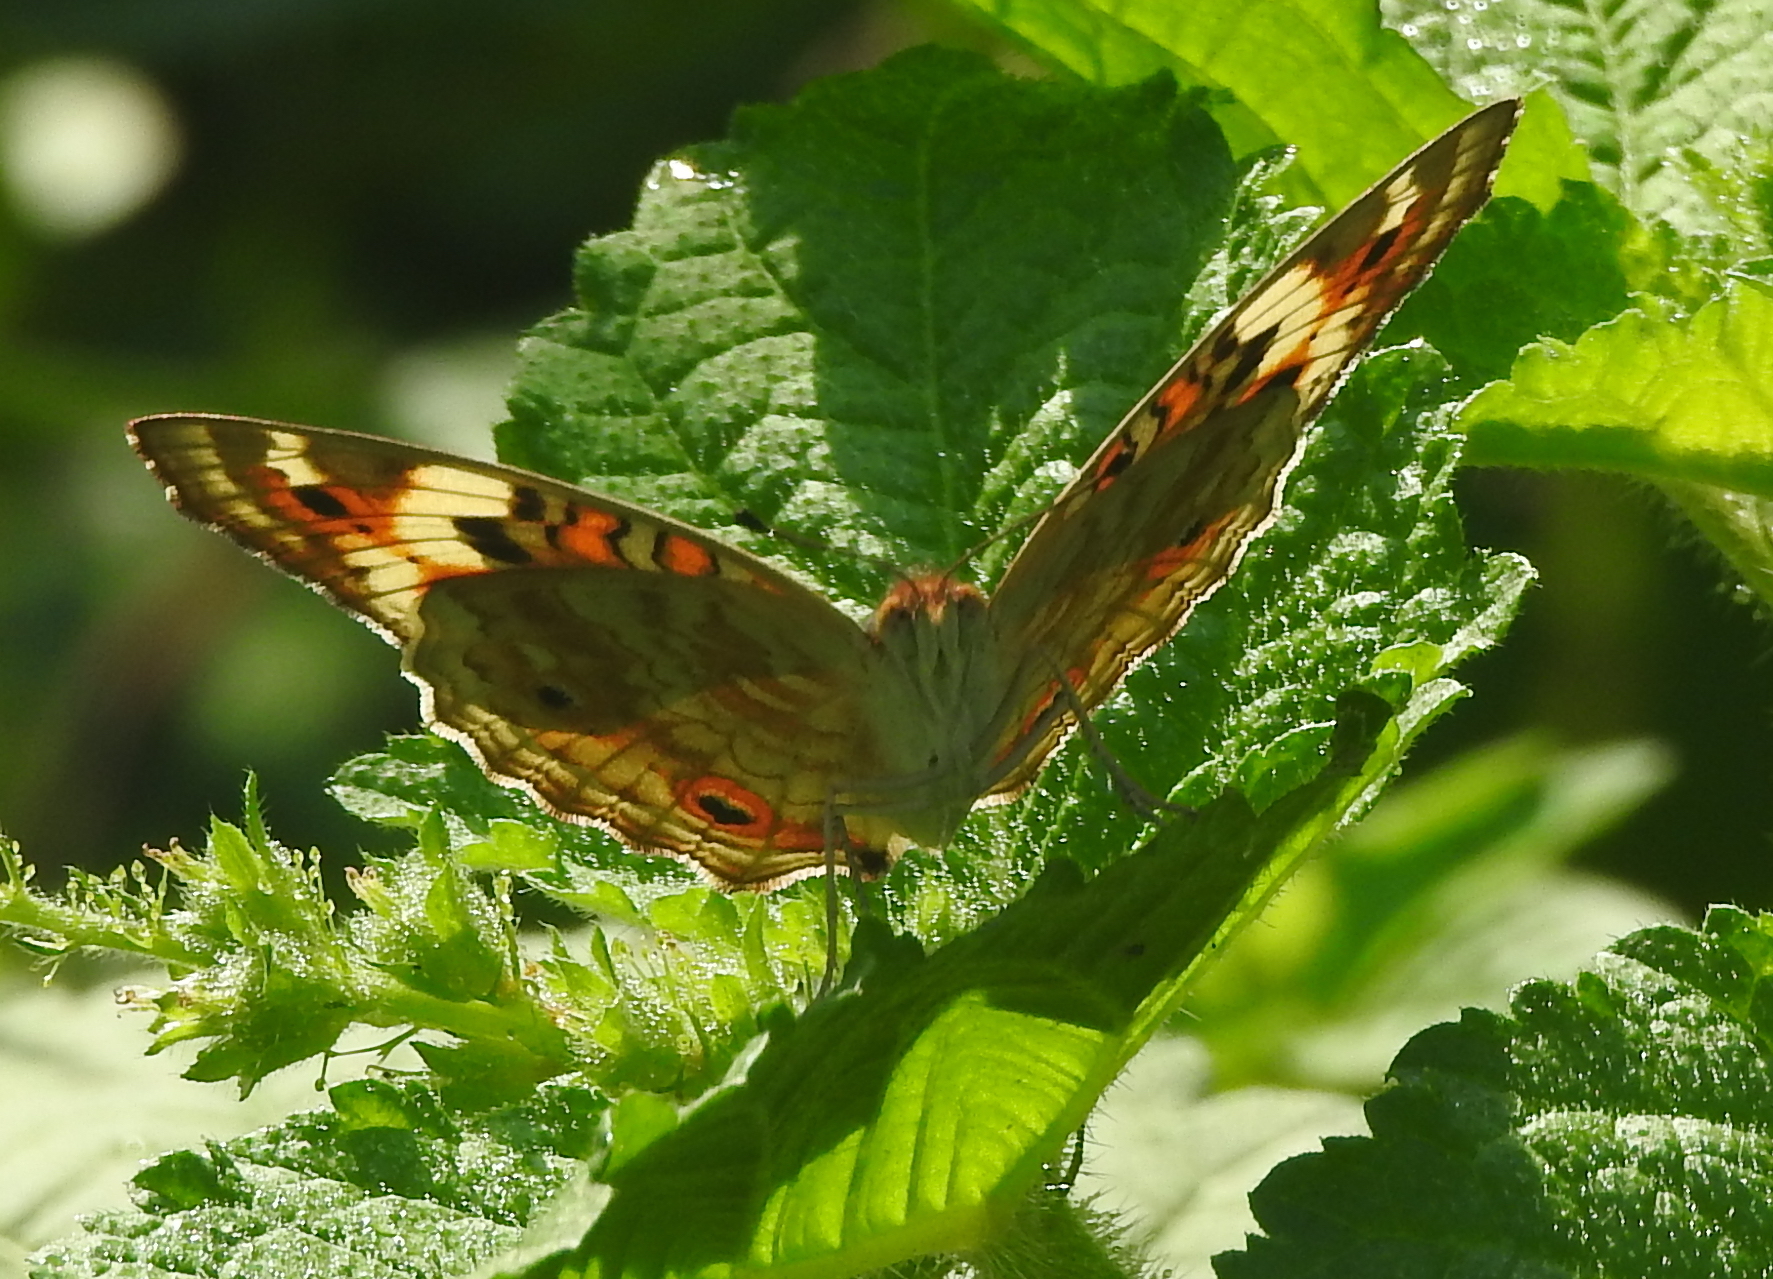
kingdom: Animalia
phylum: Arthropoda
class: Insecta
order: Lepidoptera
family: Nymphalidae
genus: Junonia
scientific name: Junonia orithya
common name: Blue pansy
